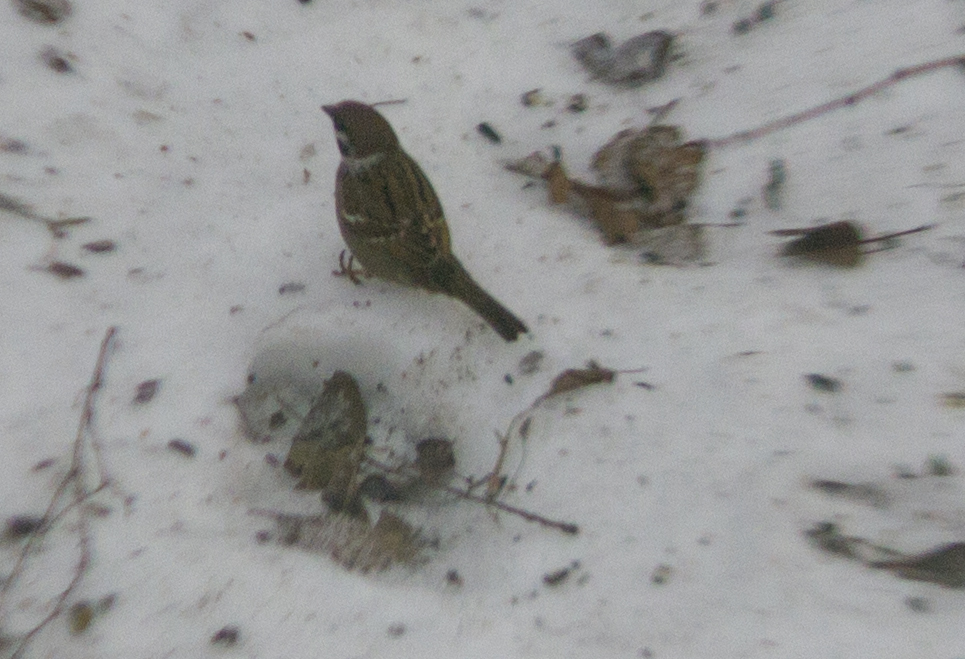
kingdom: Animalia
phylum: Chordata
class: Aves
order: Passeriformes
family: Passeridae
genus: Passer
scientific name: Passer montanus
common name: Eurasian tree sparrow
